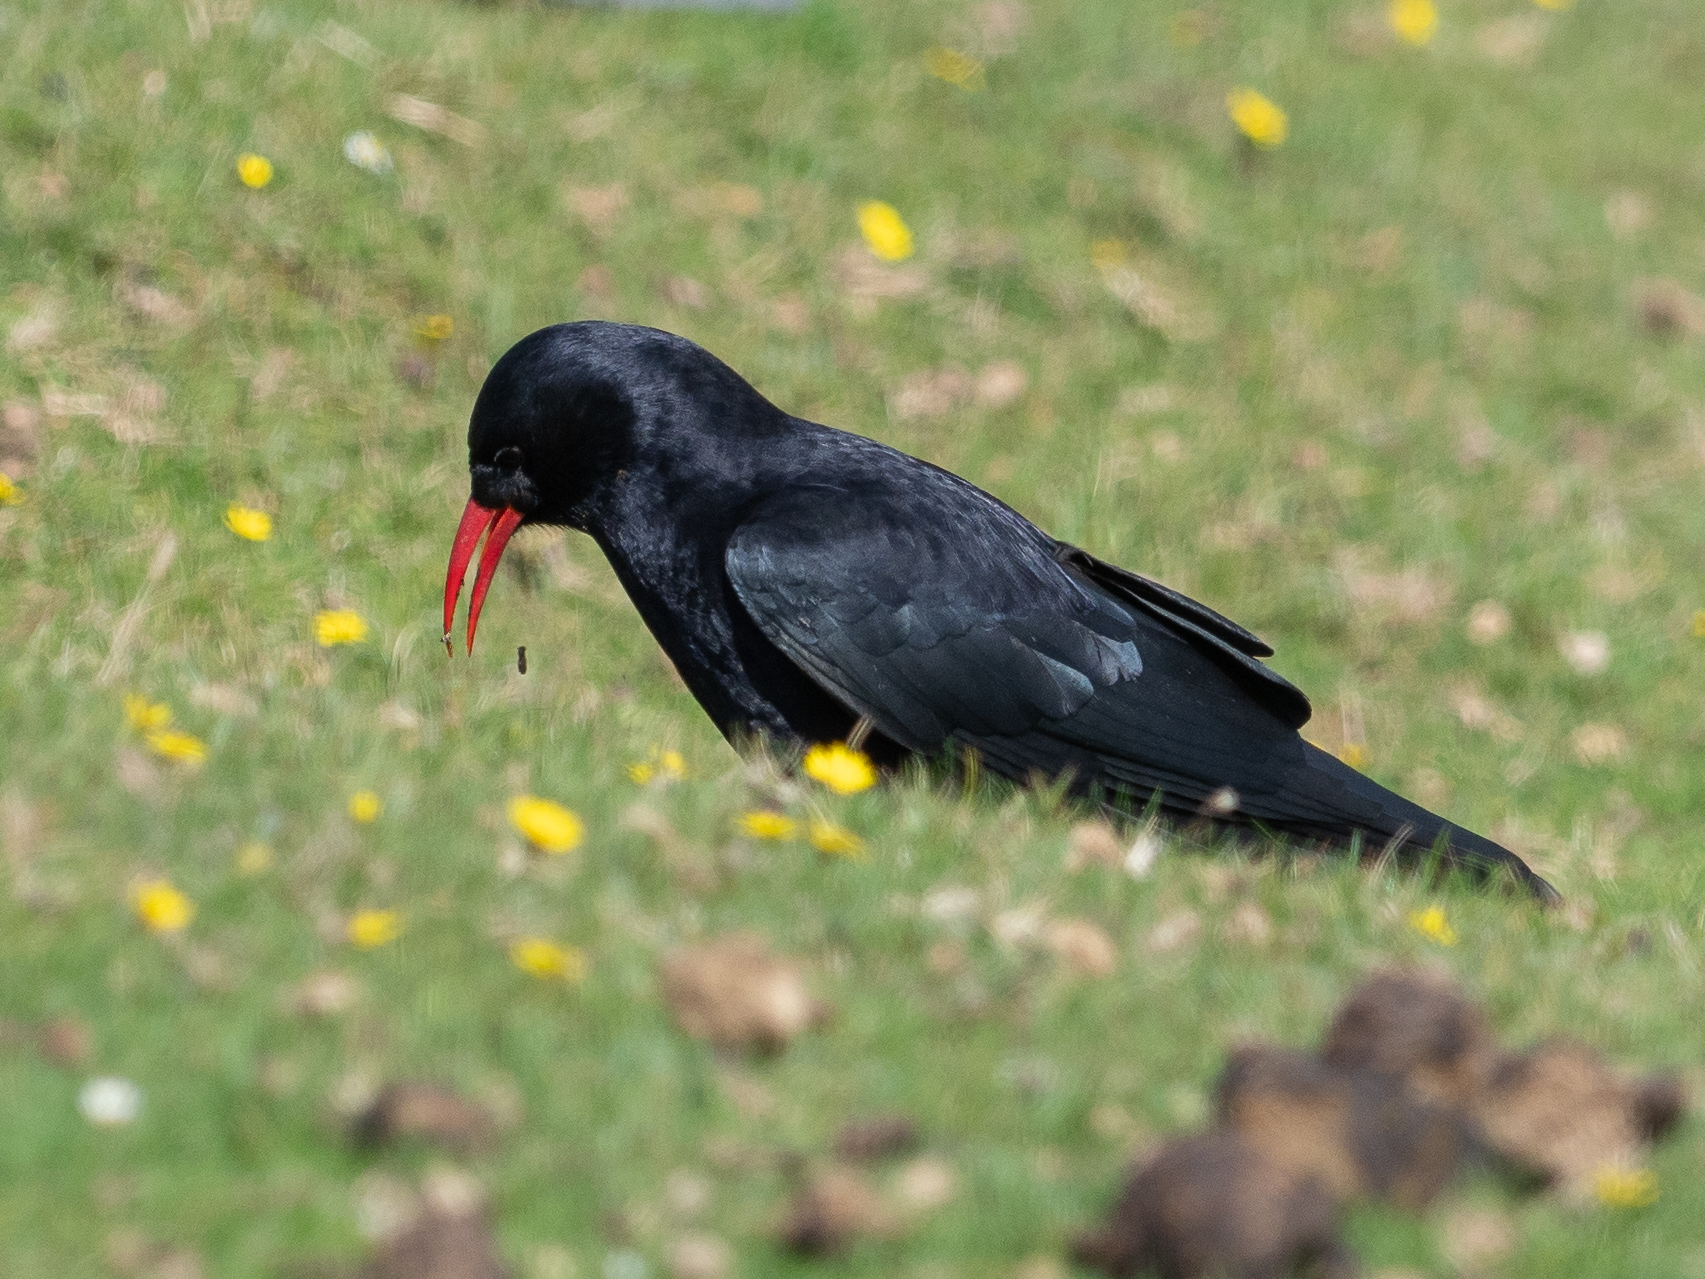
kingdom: Animalia
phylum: Chordata
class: Aves
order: Passeriformes
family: Corvidae
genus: Pyrrhocorax
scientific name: Pyrrhocorax pyrrhocorax
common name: Red-billed chough
